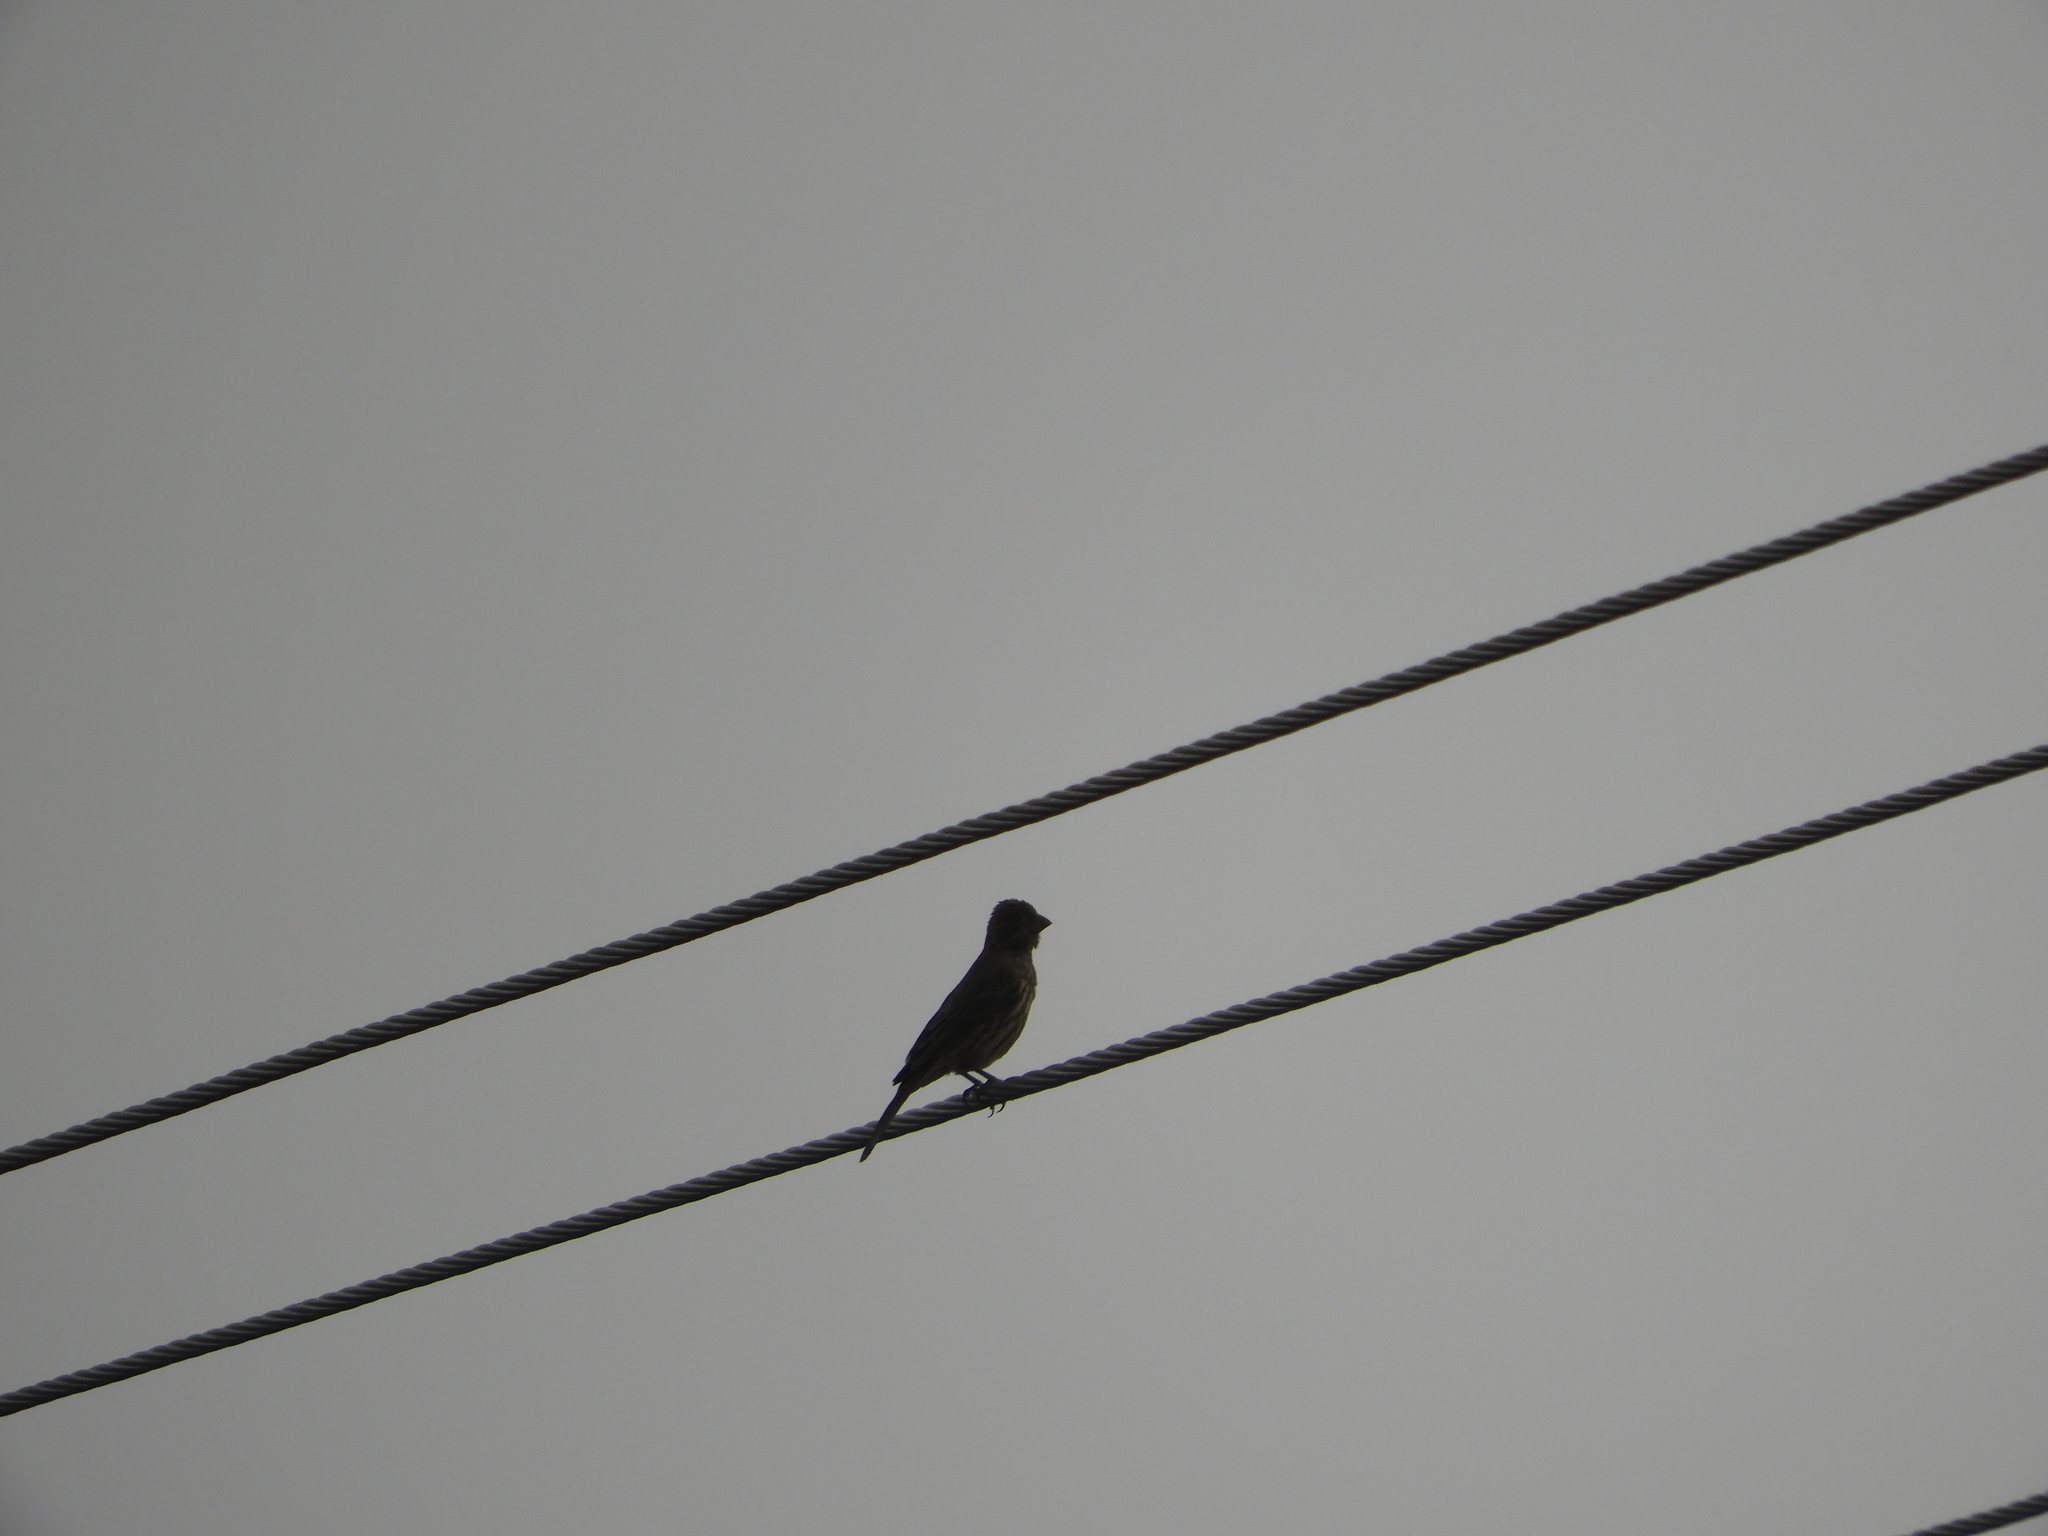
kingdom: Animalia
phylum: Chordata
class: Aves
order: Passeriformes
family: Fringillidae
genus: Haemorhous
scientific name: Haemorhous mexicanus
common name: House finch
